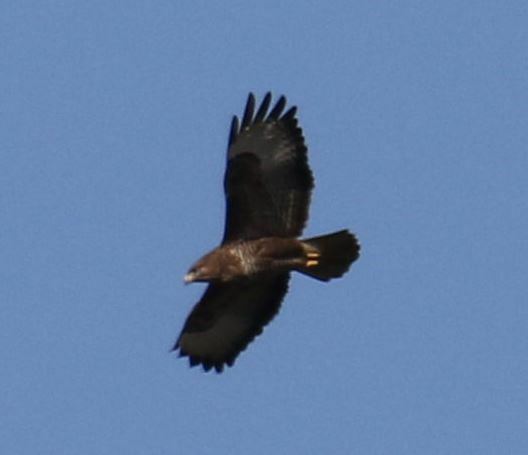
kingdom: Animalia
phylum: Chordata
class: Aves
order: Accipitriformes
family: Accipitridae
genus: Buteo
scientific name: Buteo buteo
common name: Common buzzard
